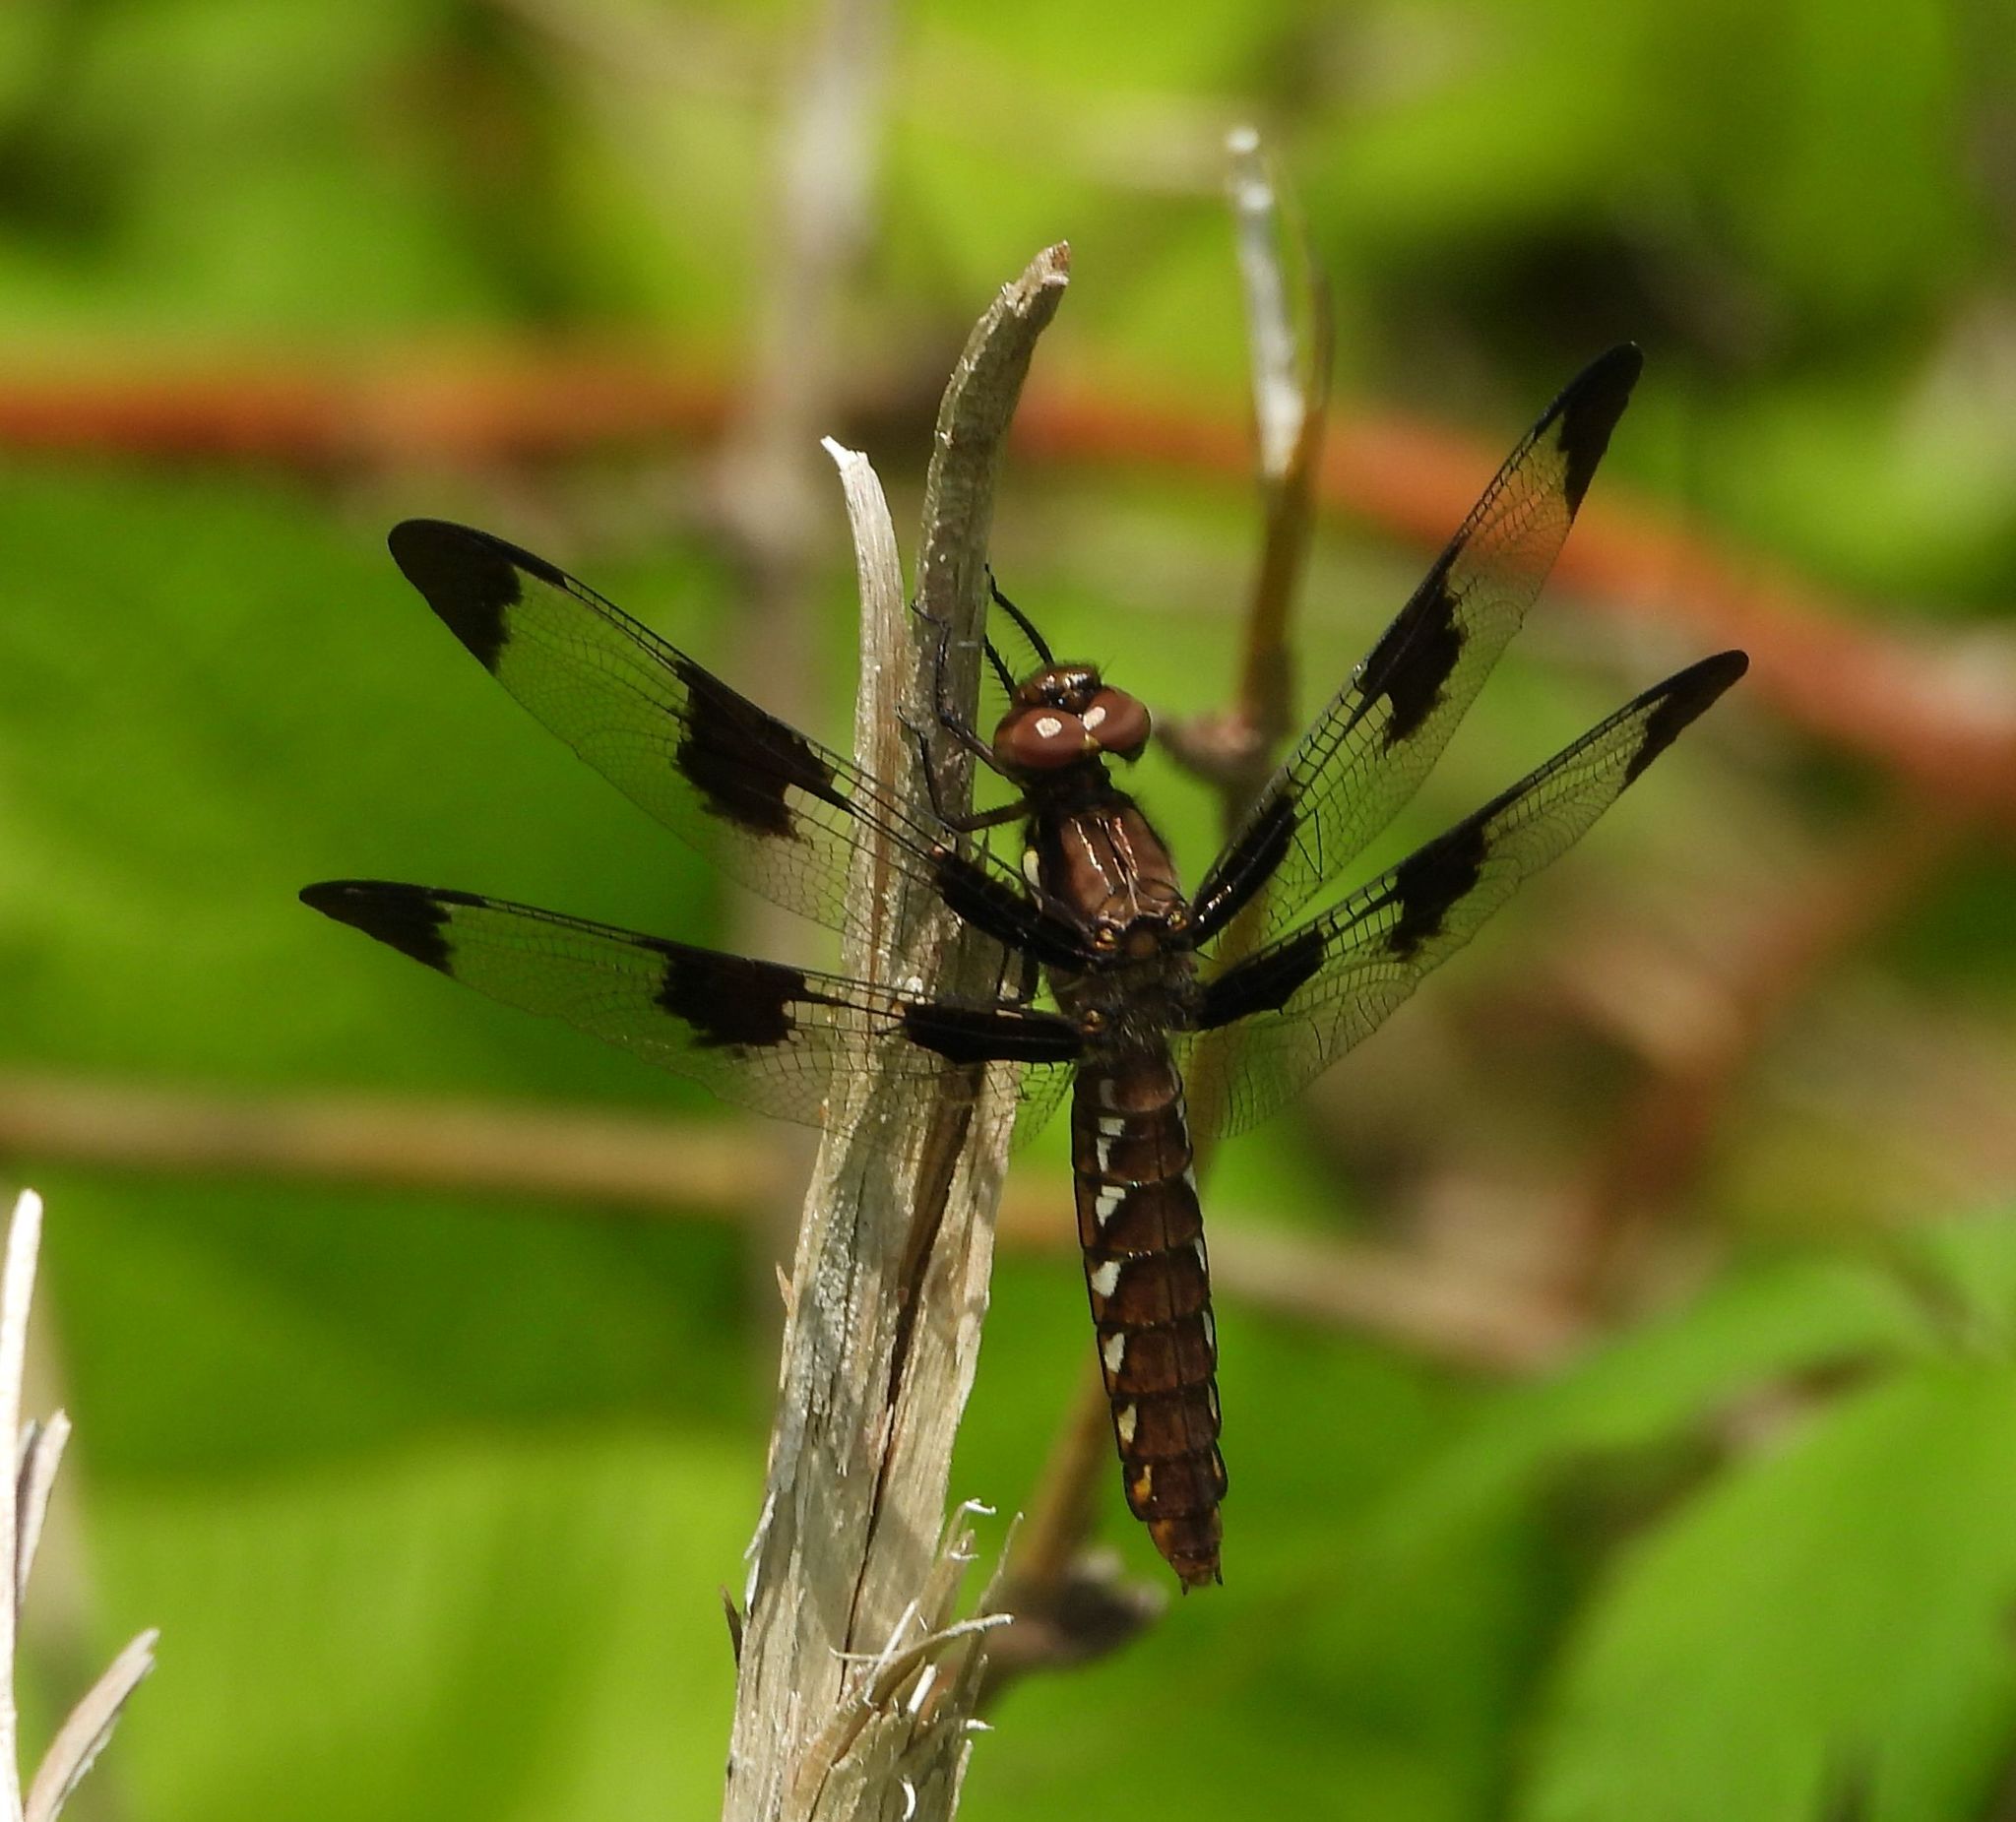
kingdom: Animalia
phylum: Arthropoda
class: Insecta
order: Odonata
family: Libellulidae
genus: Plathemis
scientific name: Plathemis lydia
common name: Common whitetail
